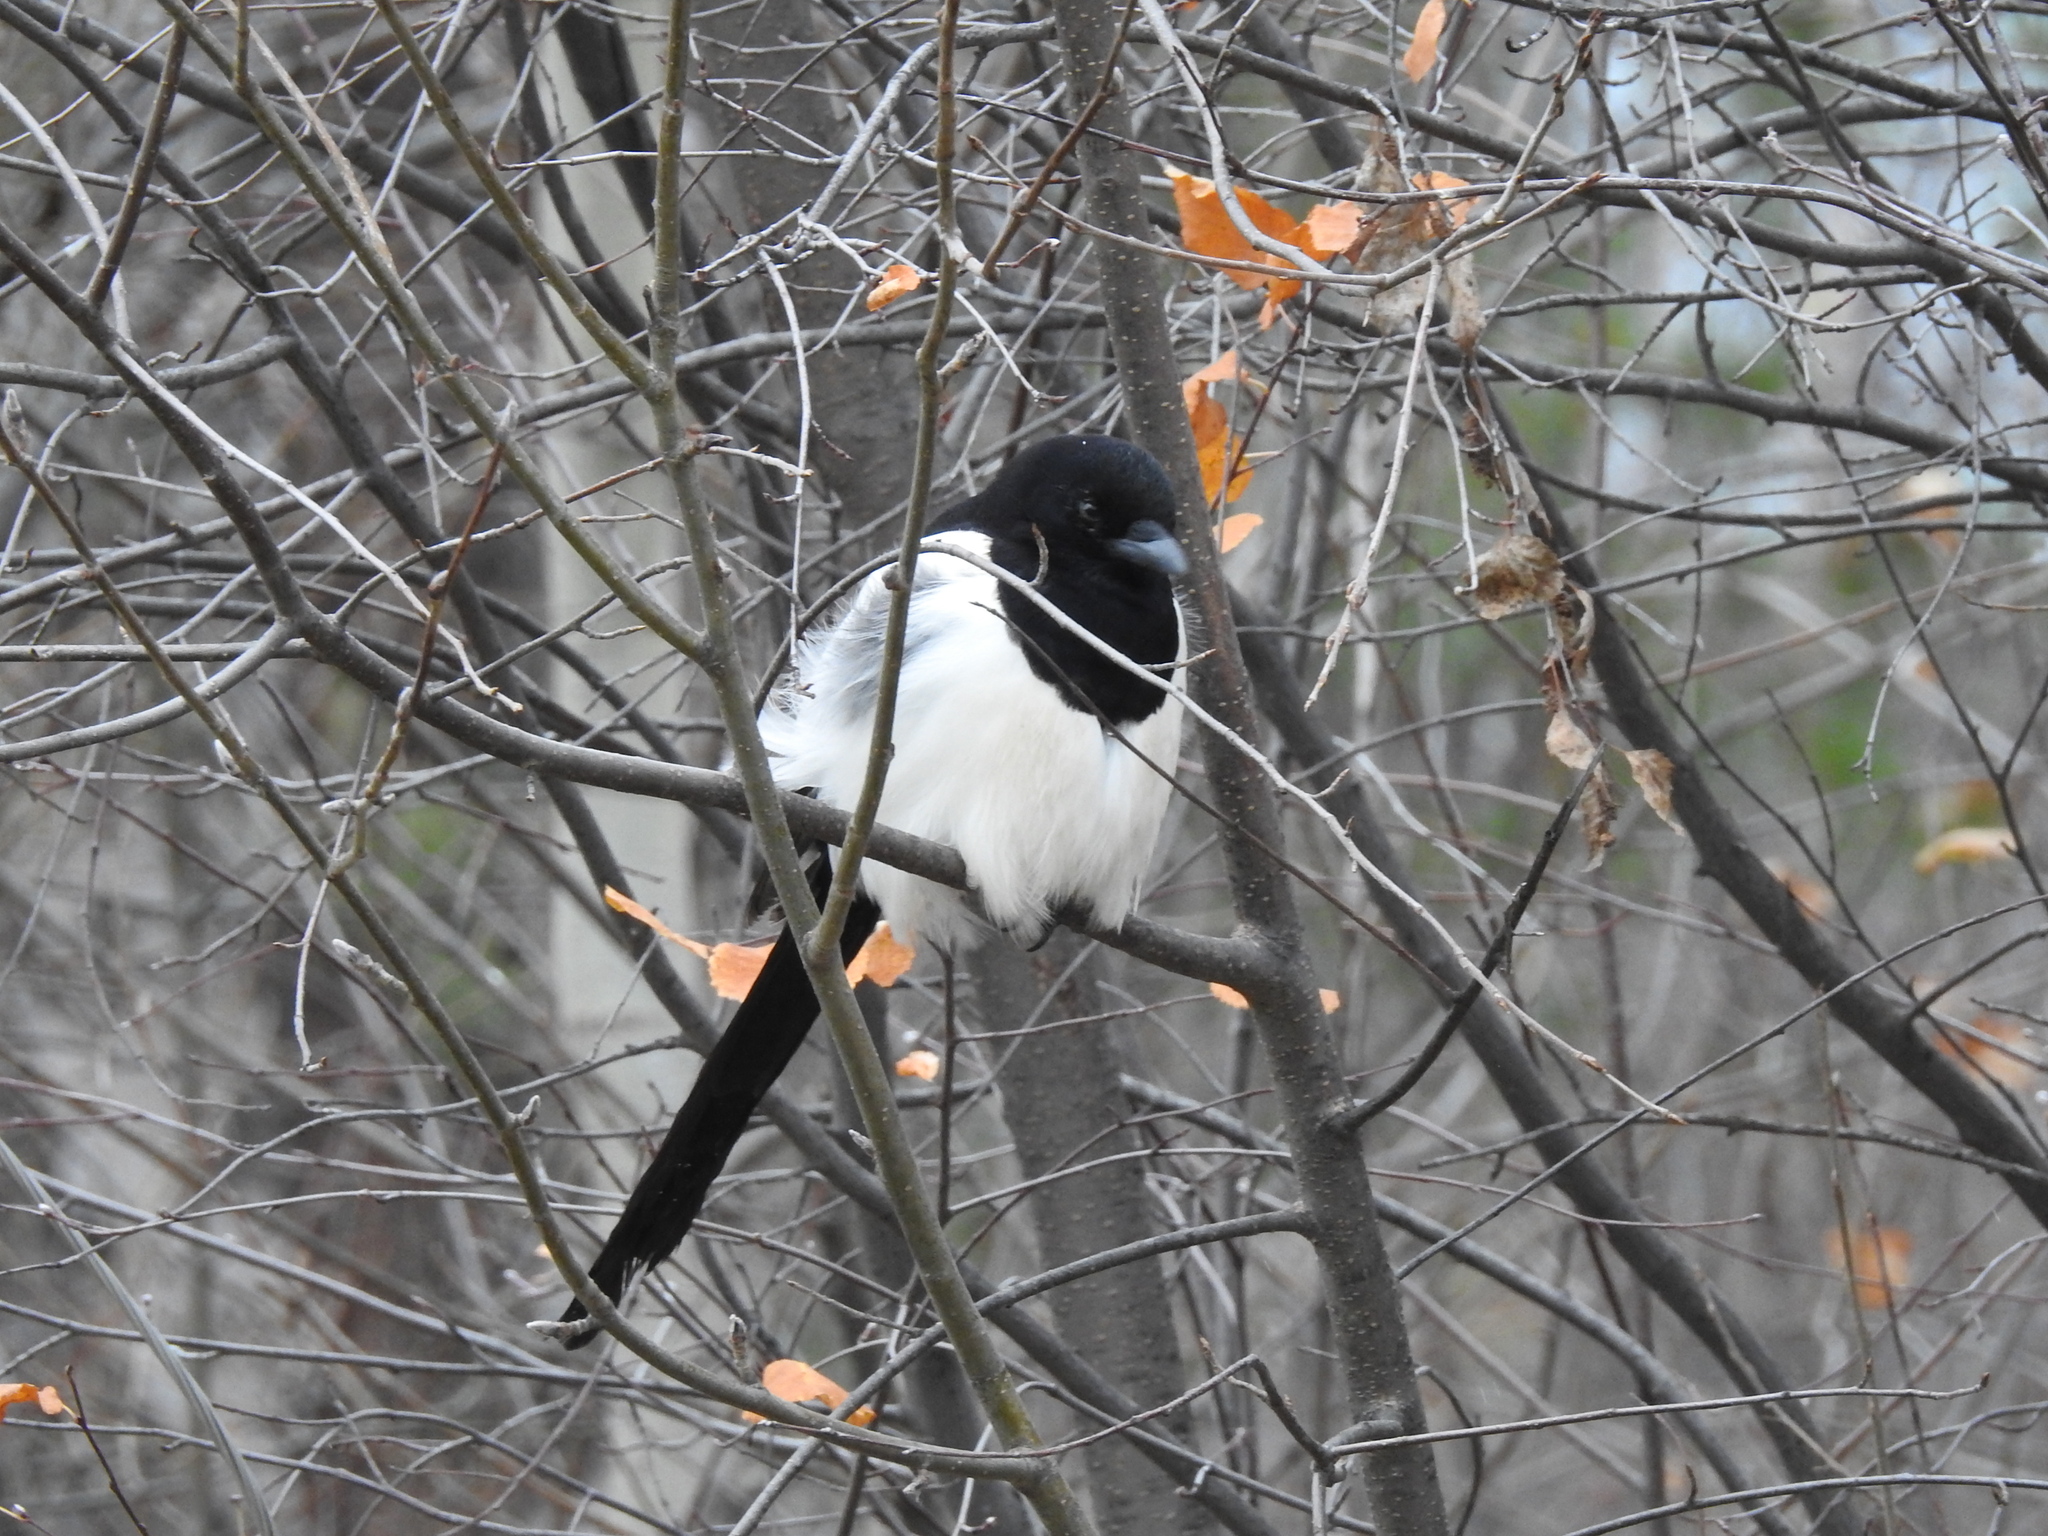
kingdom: Animalia
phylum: Chordata
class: Aves
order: Passeriformes
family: Corvidae
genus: Pica
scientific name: Pica pica
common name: Eurasian magpie
